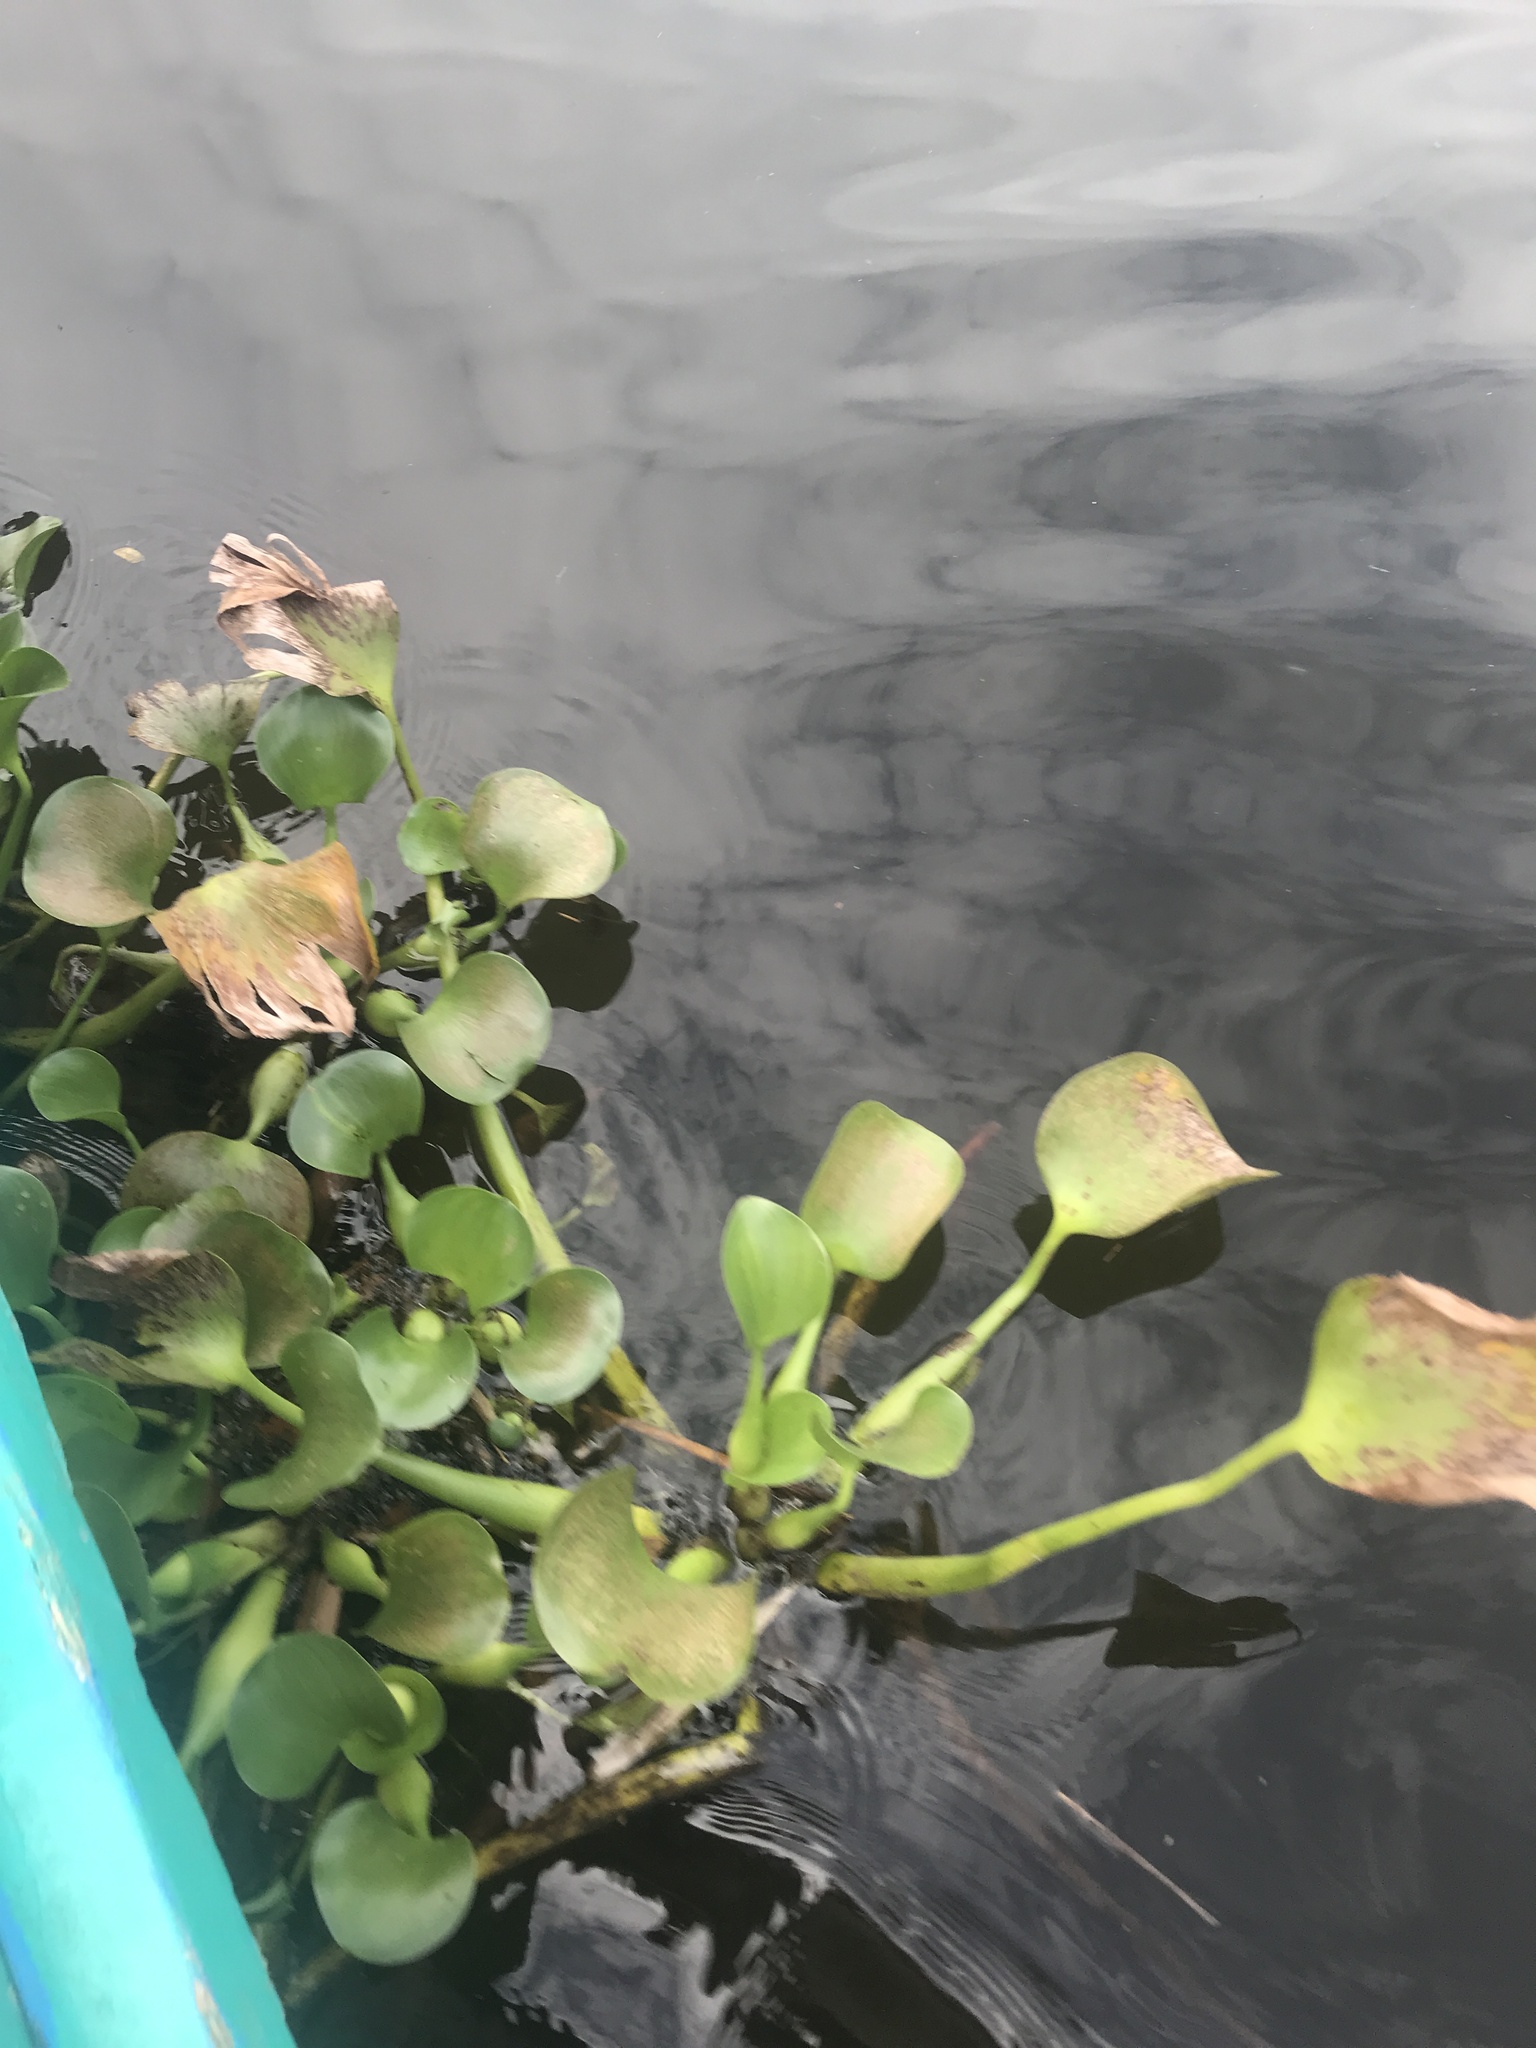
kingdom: Plantae
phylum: Tracheophyta
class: Liliopsida
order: Commelinales
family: Pontederiaceae
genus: Pontederia
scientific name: Pontederia crassipes
